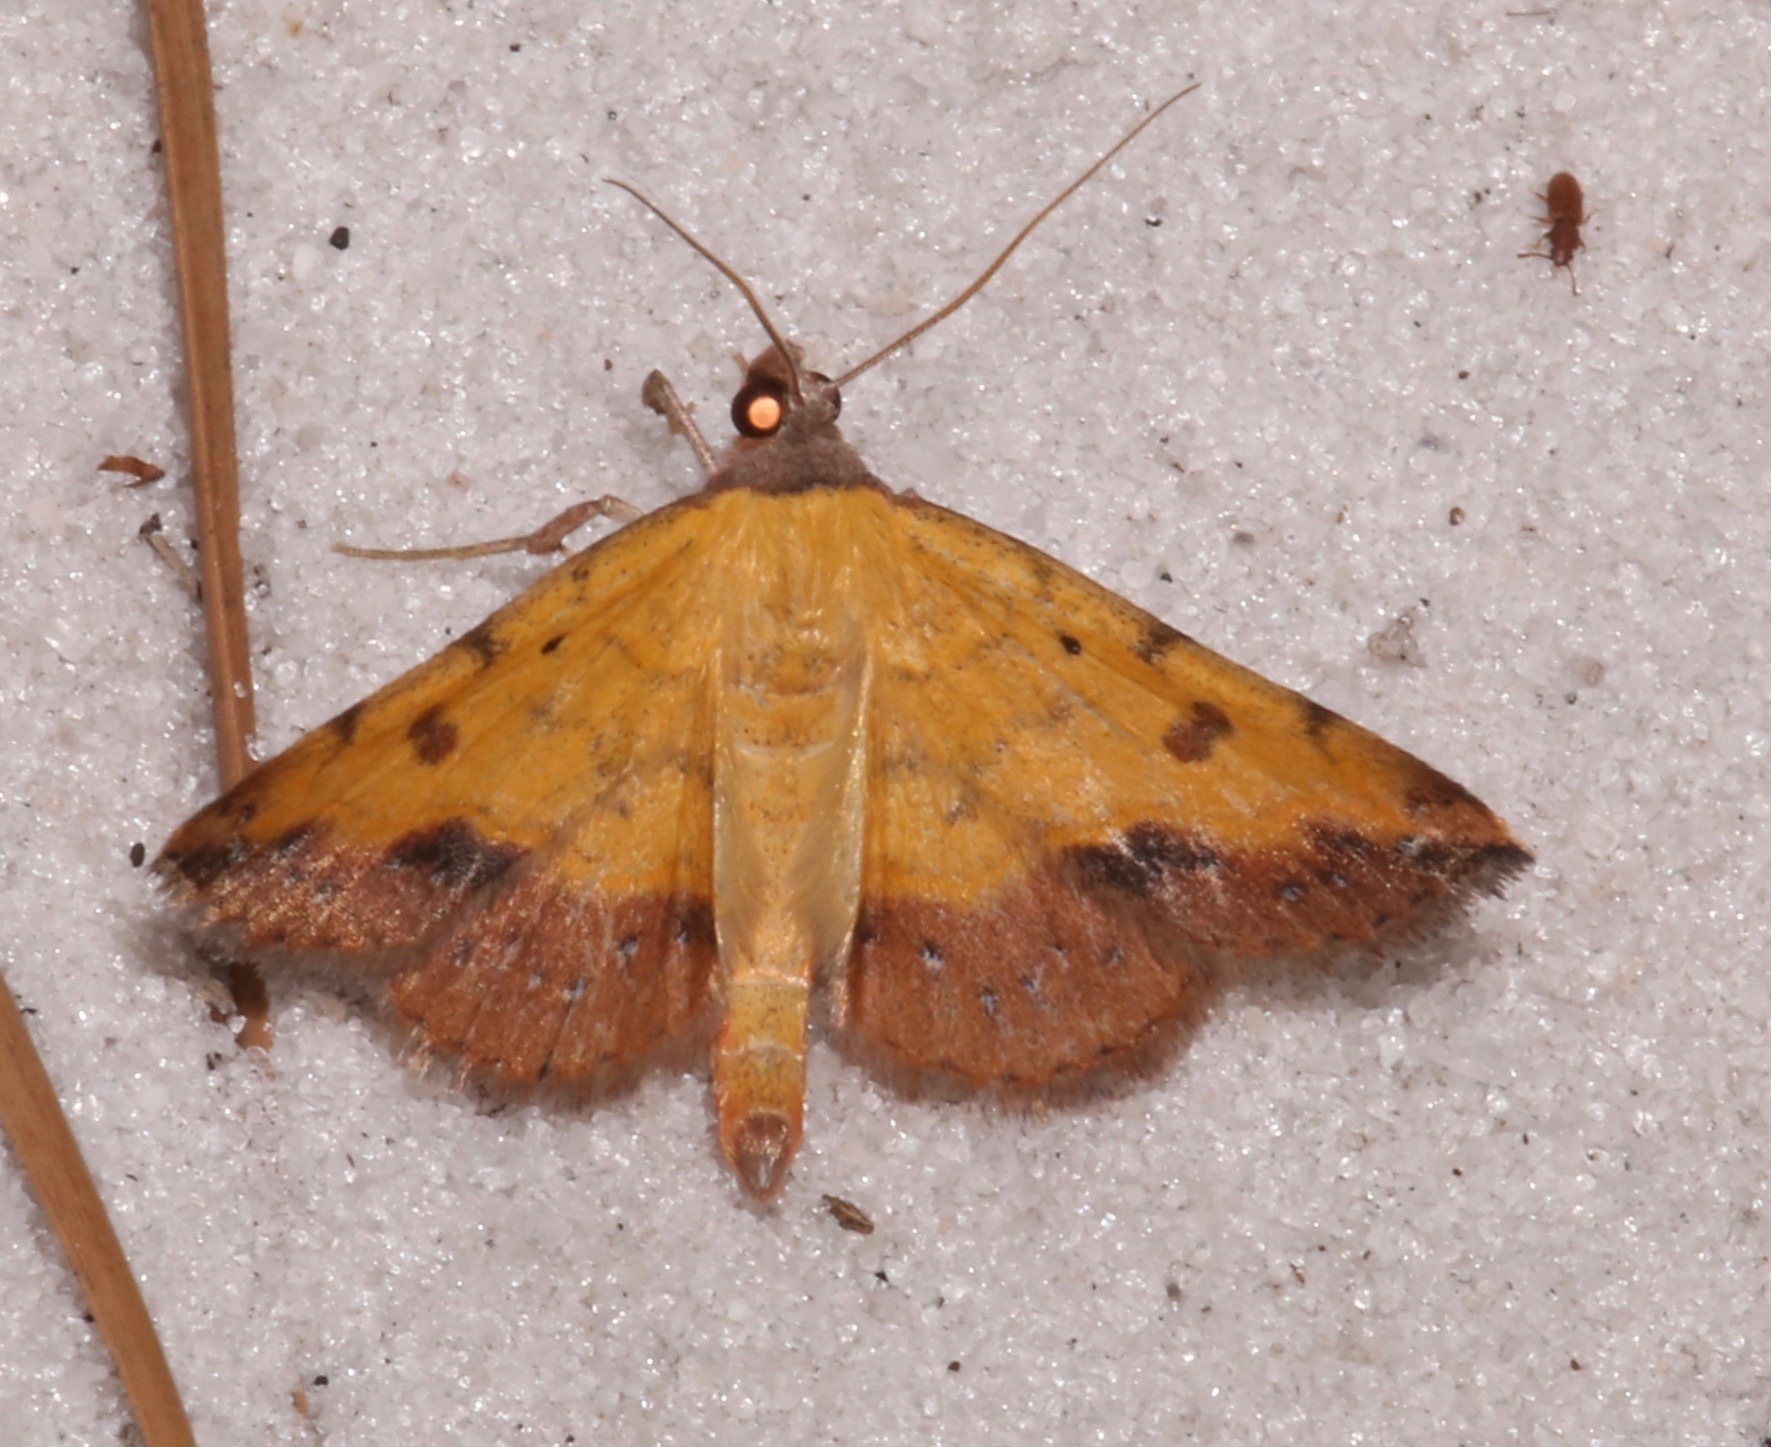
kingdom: Animalia
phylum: Arthropoda
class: Insecta
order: Lepidoptera
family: Erebidae
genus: Hemeroplanis
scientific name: Hemeroplanis scopulepes
